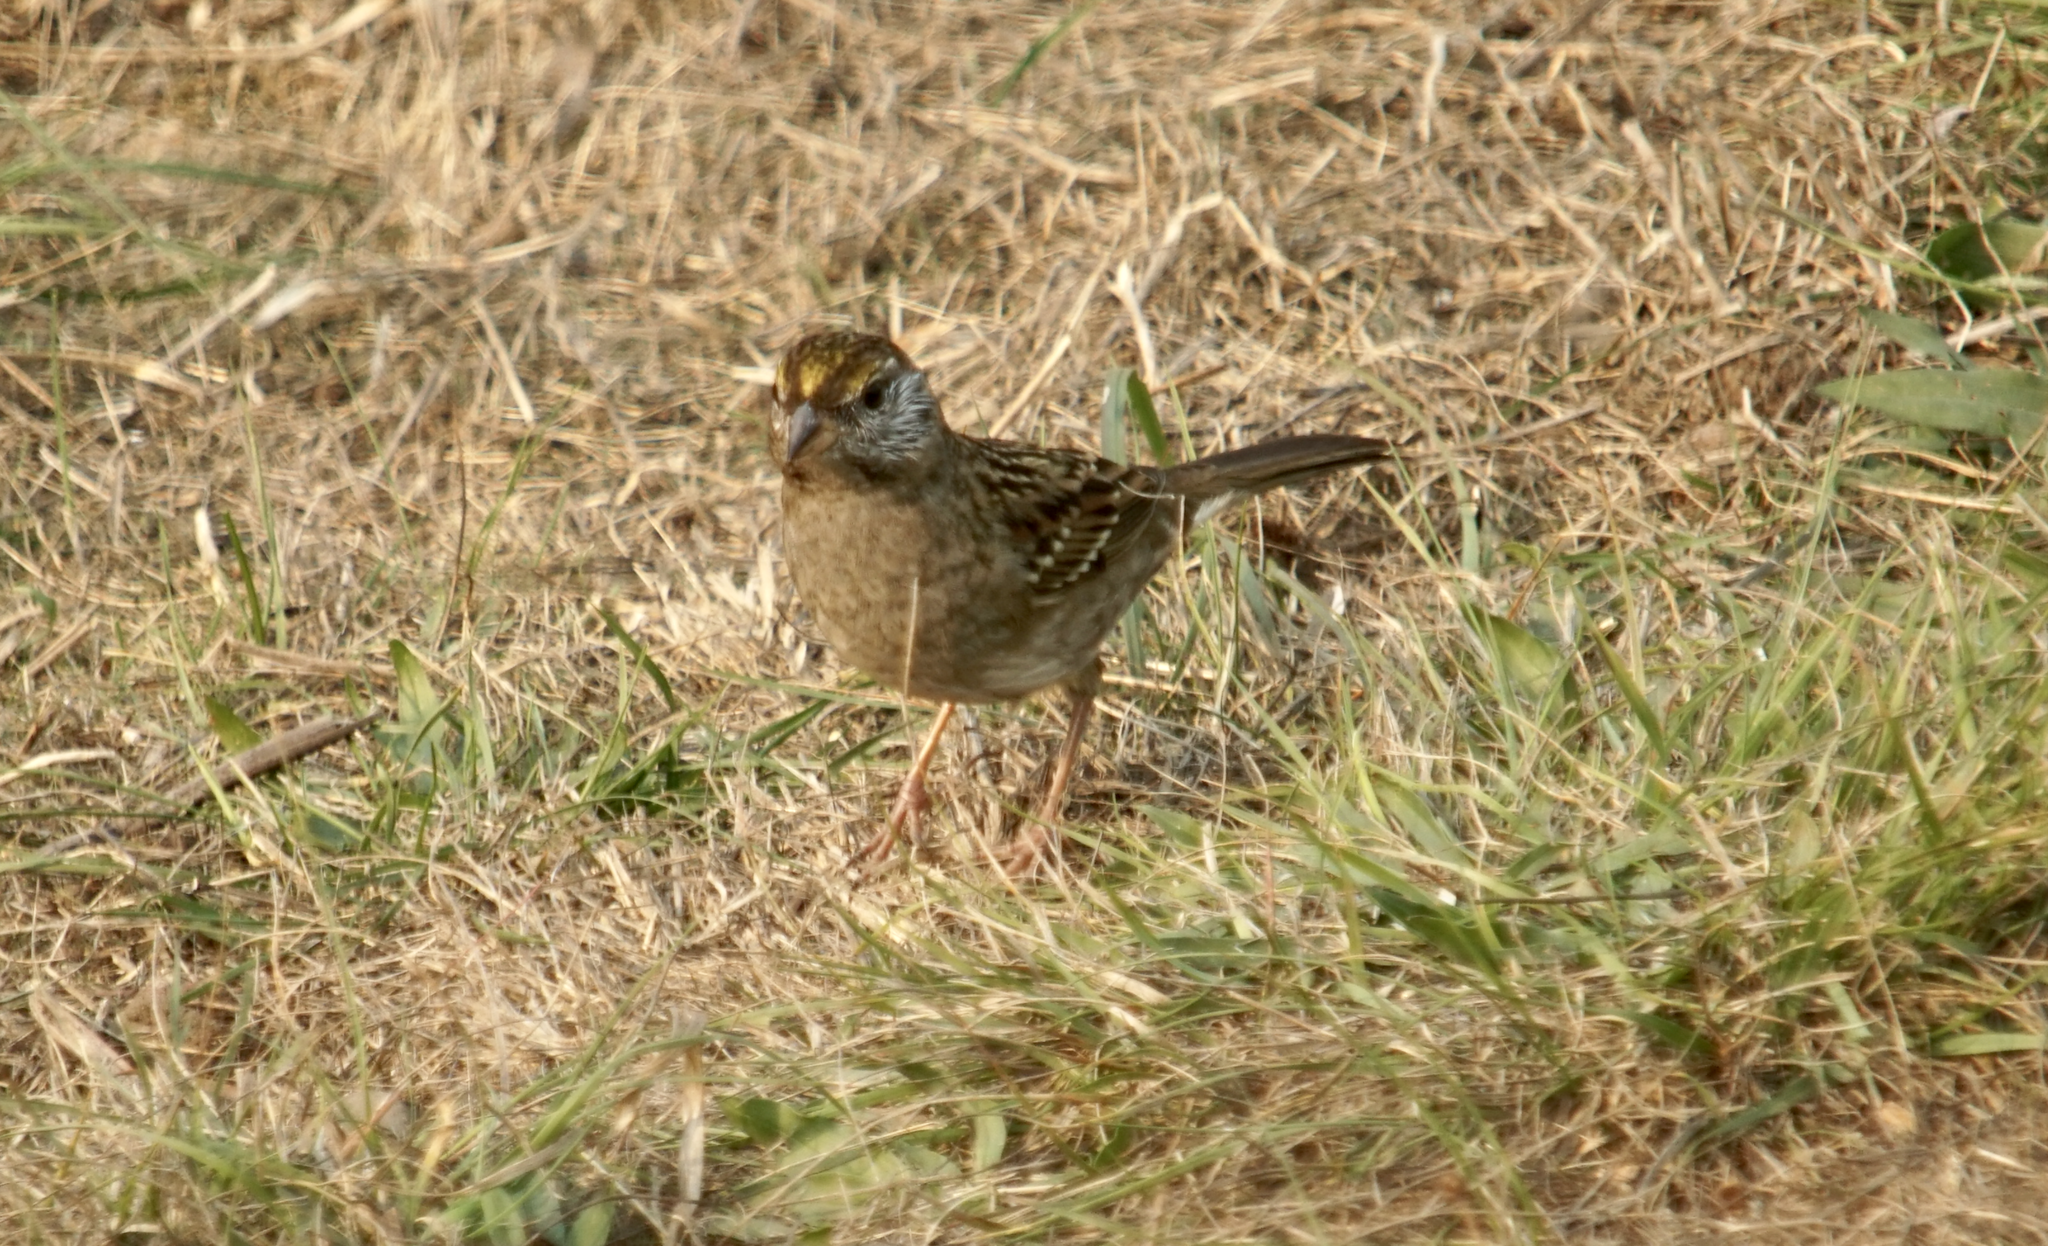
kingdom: Animalia
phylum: Chordata
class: Aves
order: Passeriformes
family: Passerellidae
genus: Zonotrichia
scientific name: Zonotrichia atricapilla
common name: Golden-crowned sparrow
